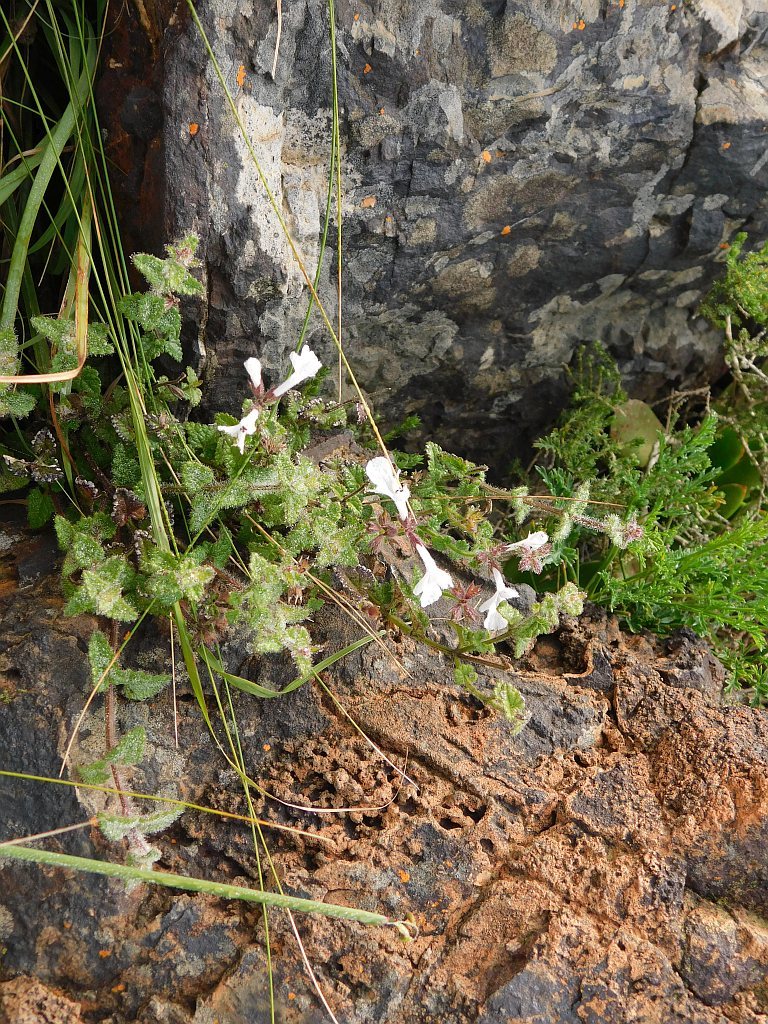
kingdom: Plantae
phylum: Tracheophyta
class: Magnoliopsida
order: Lamiales
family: Lamiaceae
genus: Stachys
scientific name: Stachys aethiopica
